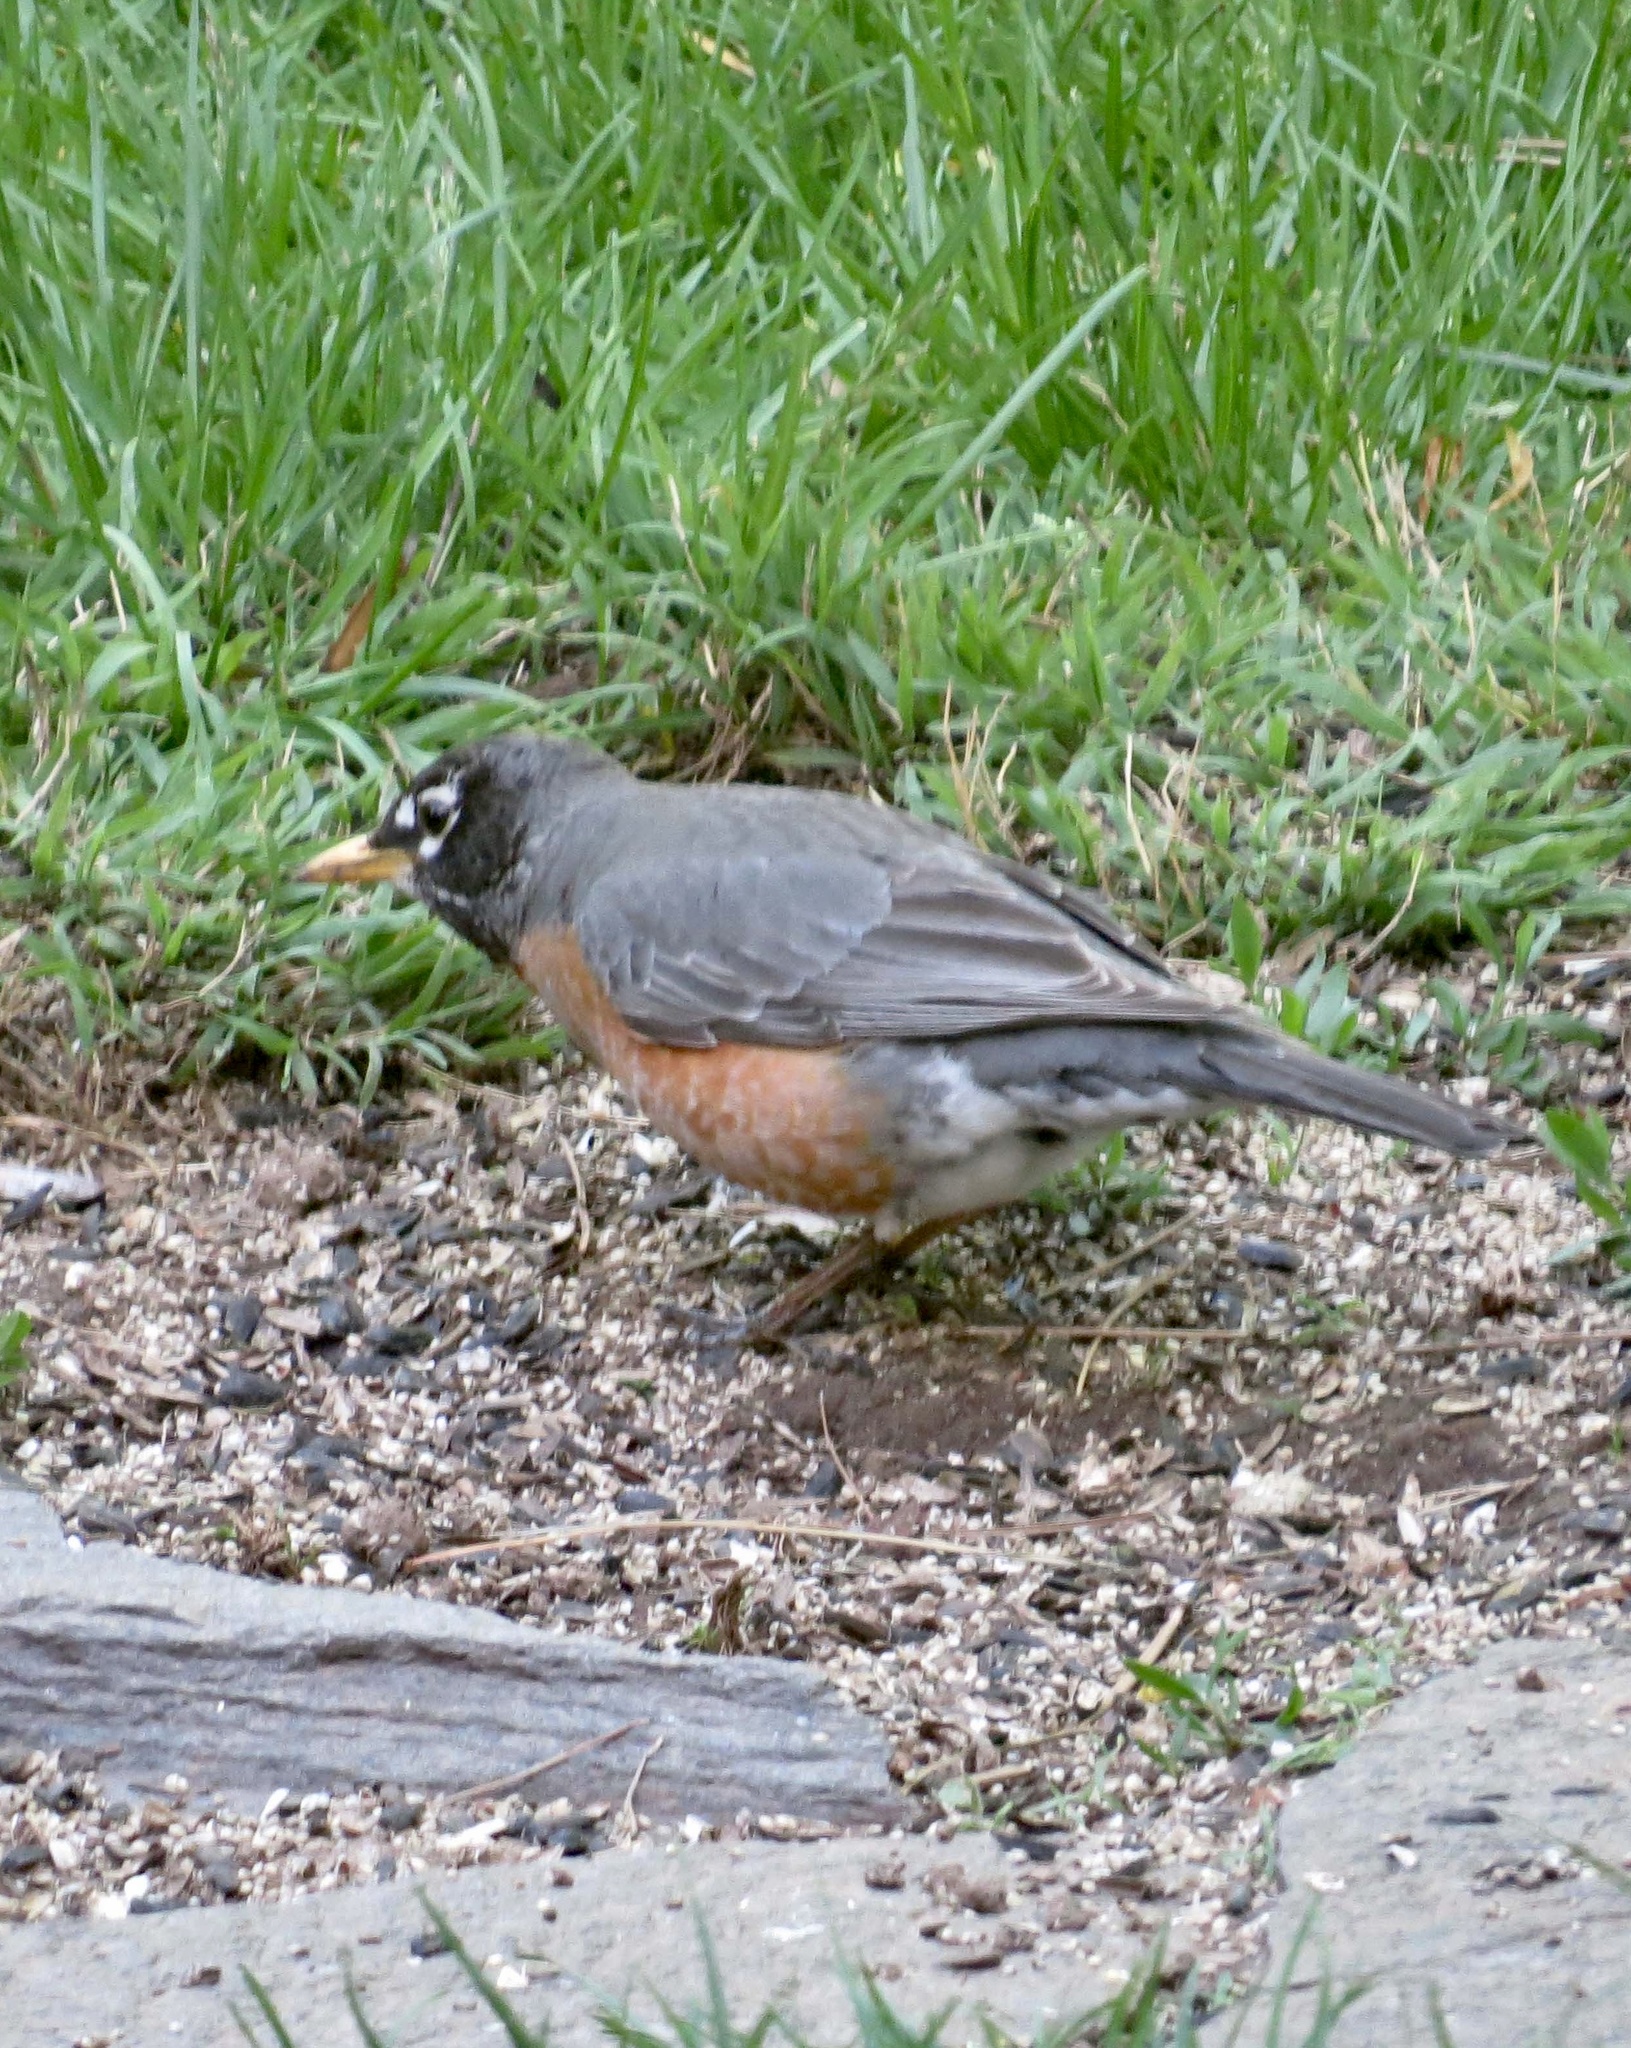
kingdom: Animalia
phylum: Chordata
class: Aves
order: Passeriformes
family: Turdidae
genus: Turdus
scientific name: Turdus migratorius
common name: American robin
